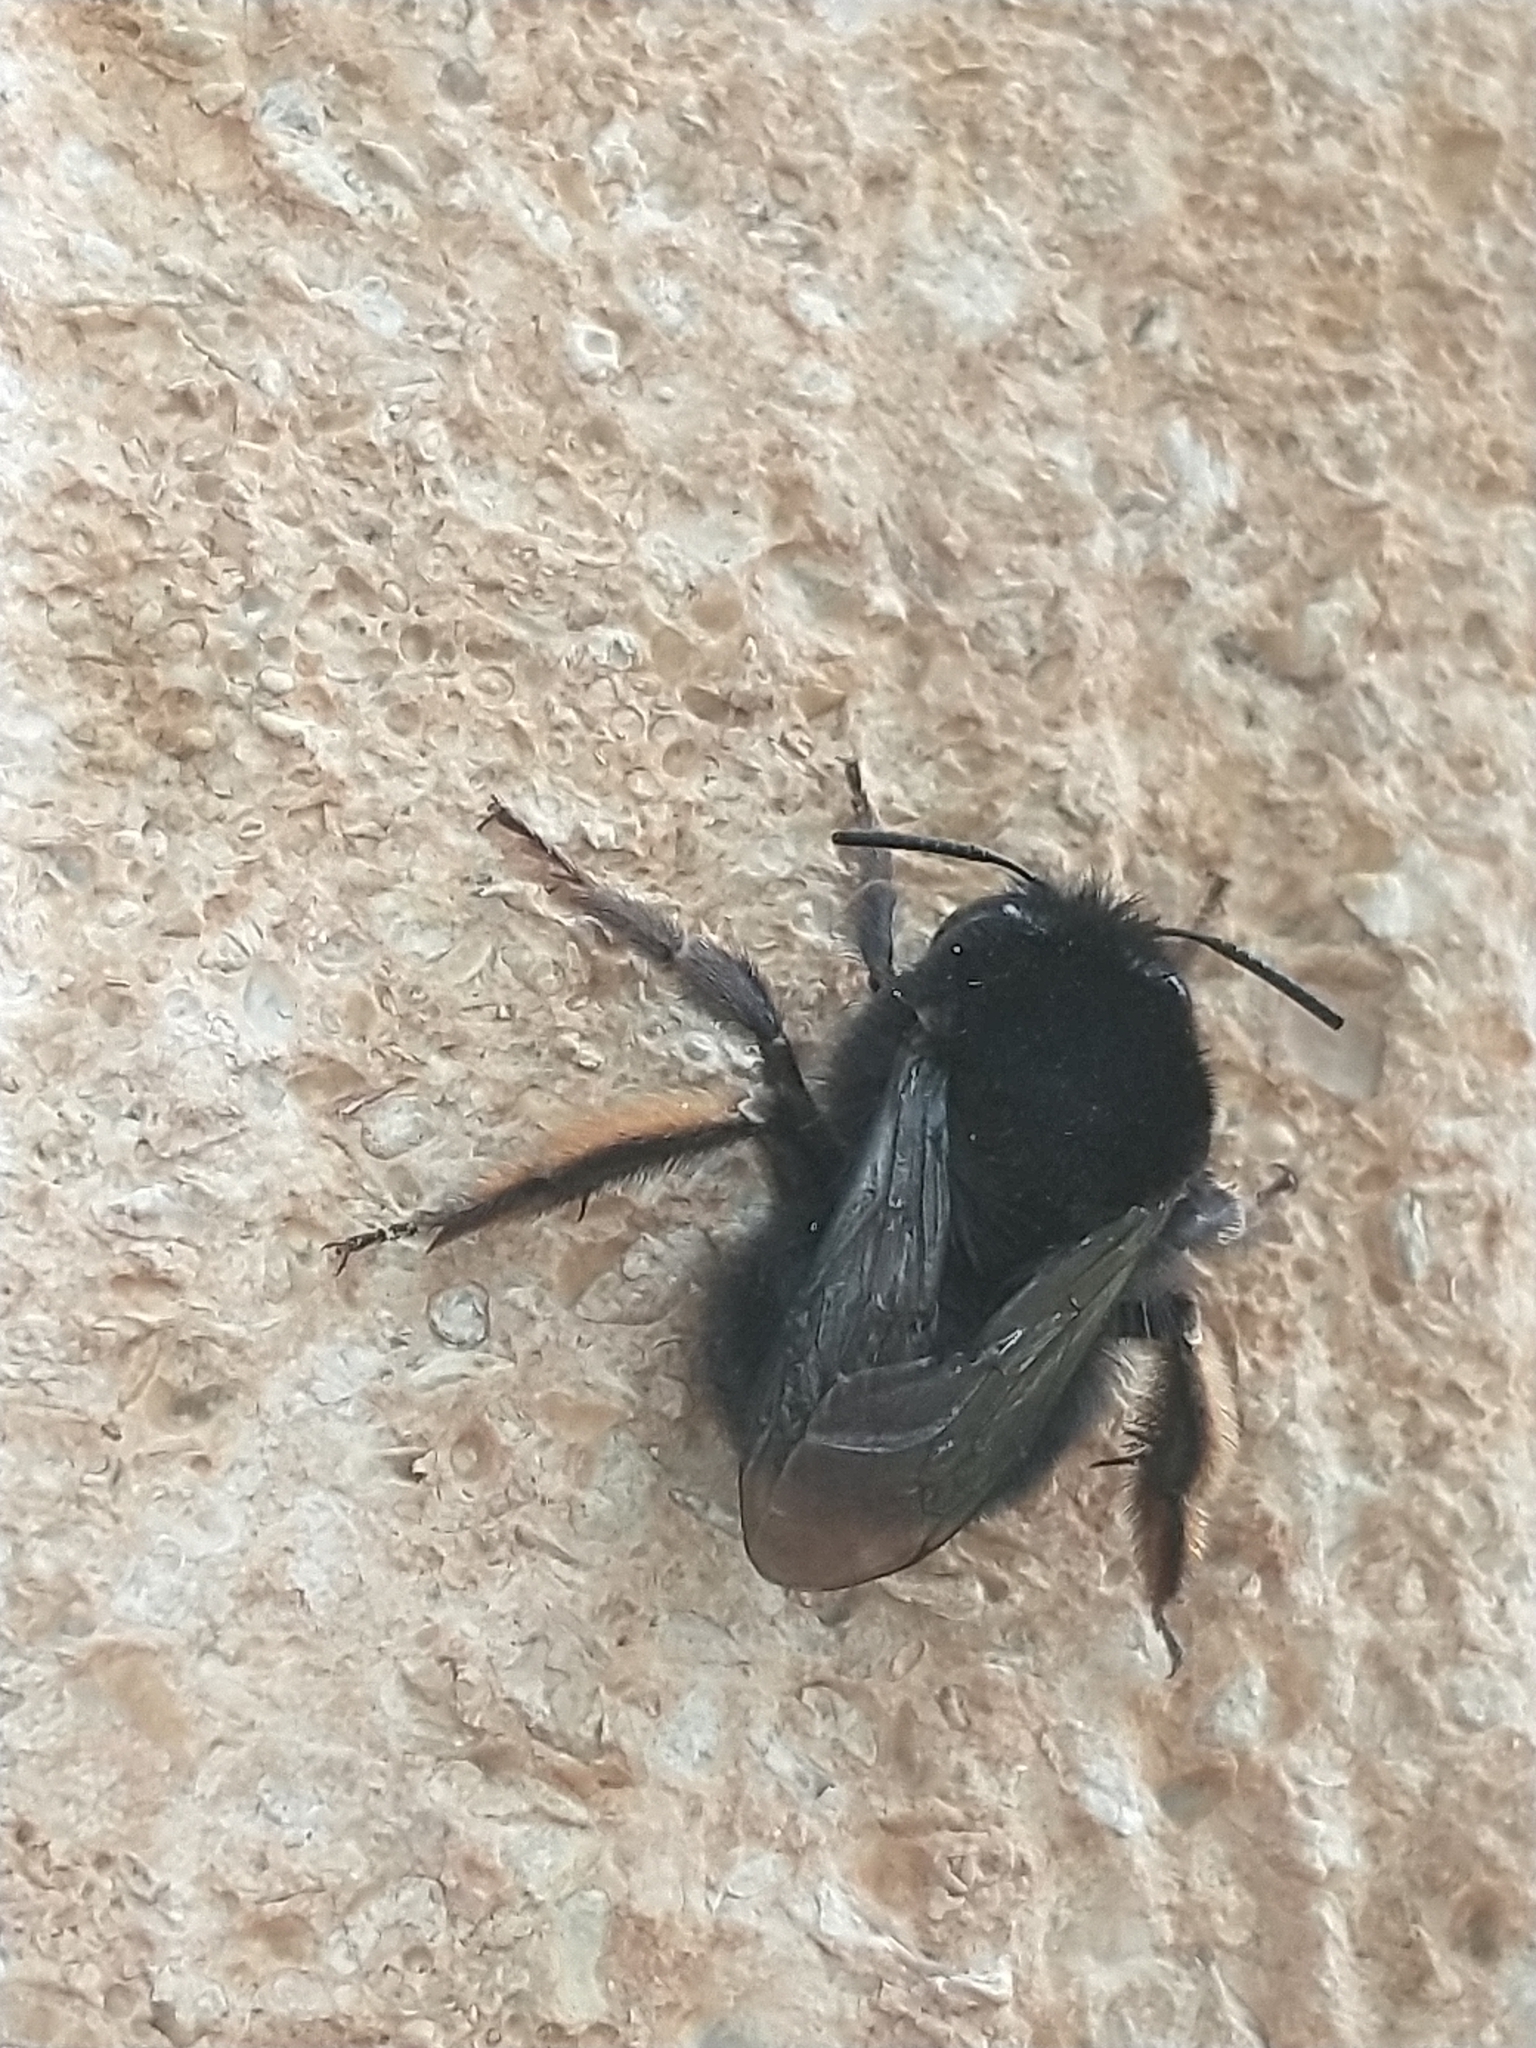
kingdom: Animalia
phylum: Arthropoda
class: Insecta
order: Hymenoptera
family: Apidae
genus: Anthophora
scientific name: Anthophora plumipes
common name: Hairy-footed flower bee
